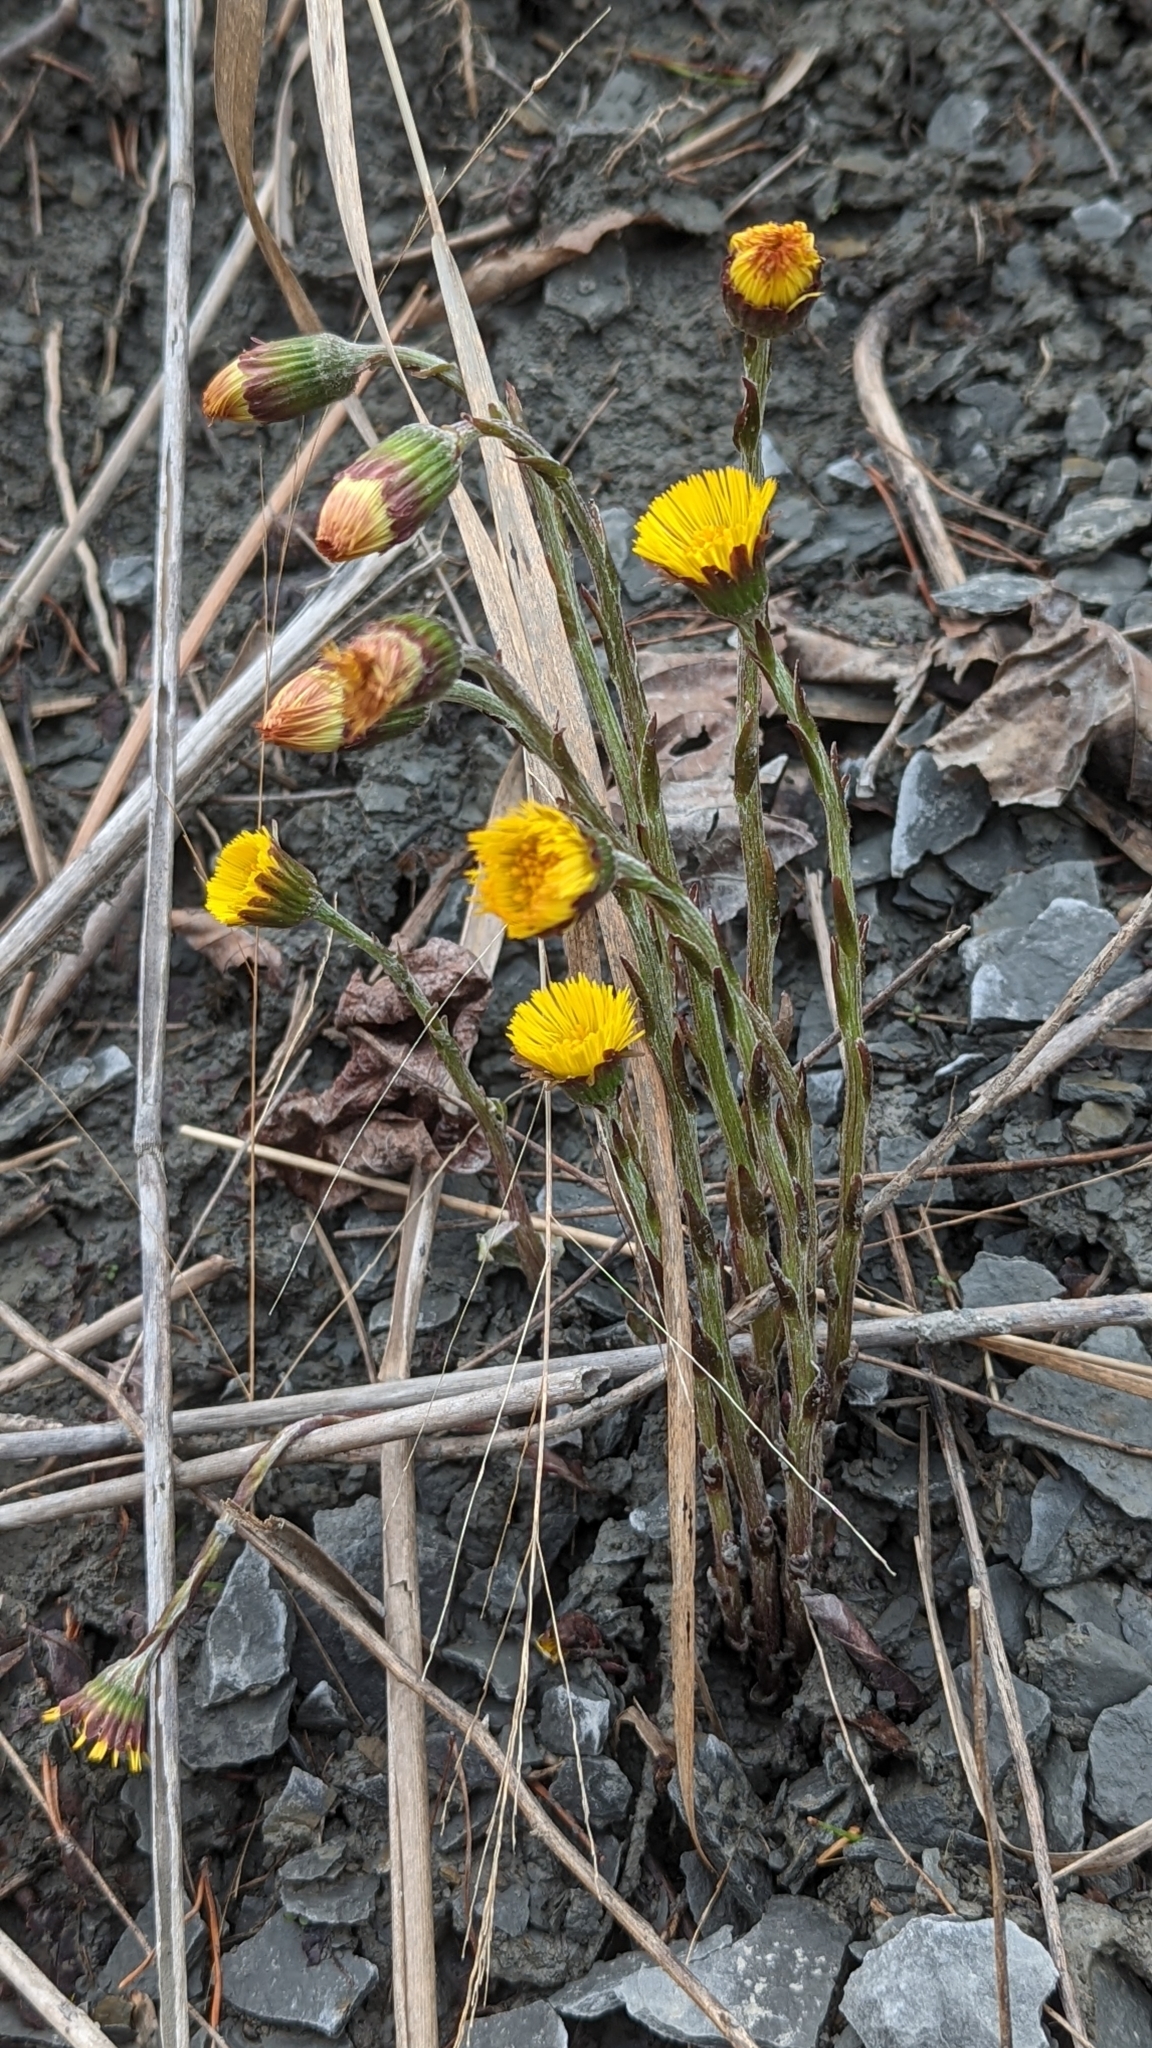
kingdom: Plantae
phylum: Tracheophyta
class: Magnoliopsida
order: Asterales
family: Asteraceae
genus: Tussilago
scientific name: Tussilago farfara
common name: Coltsfoot
